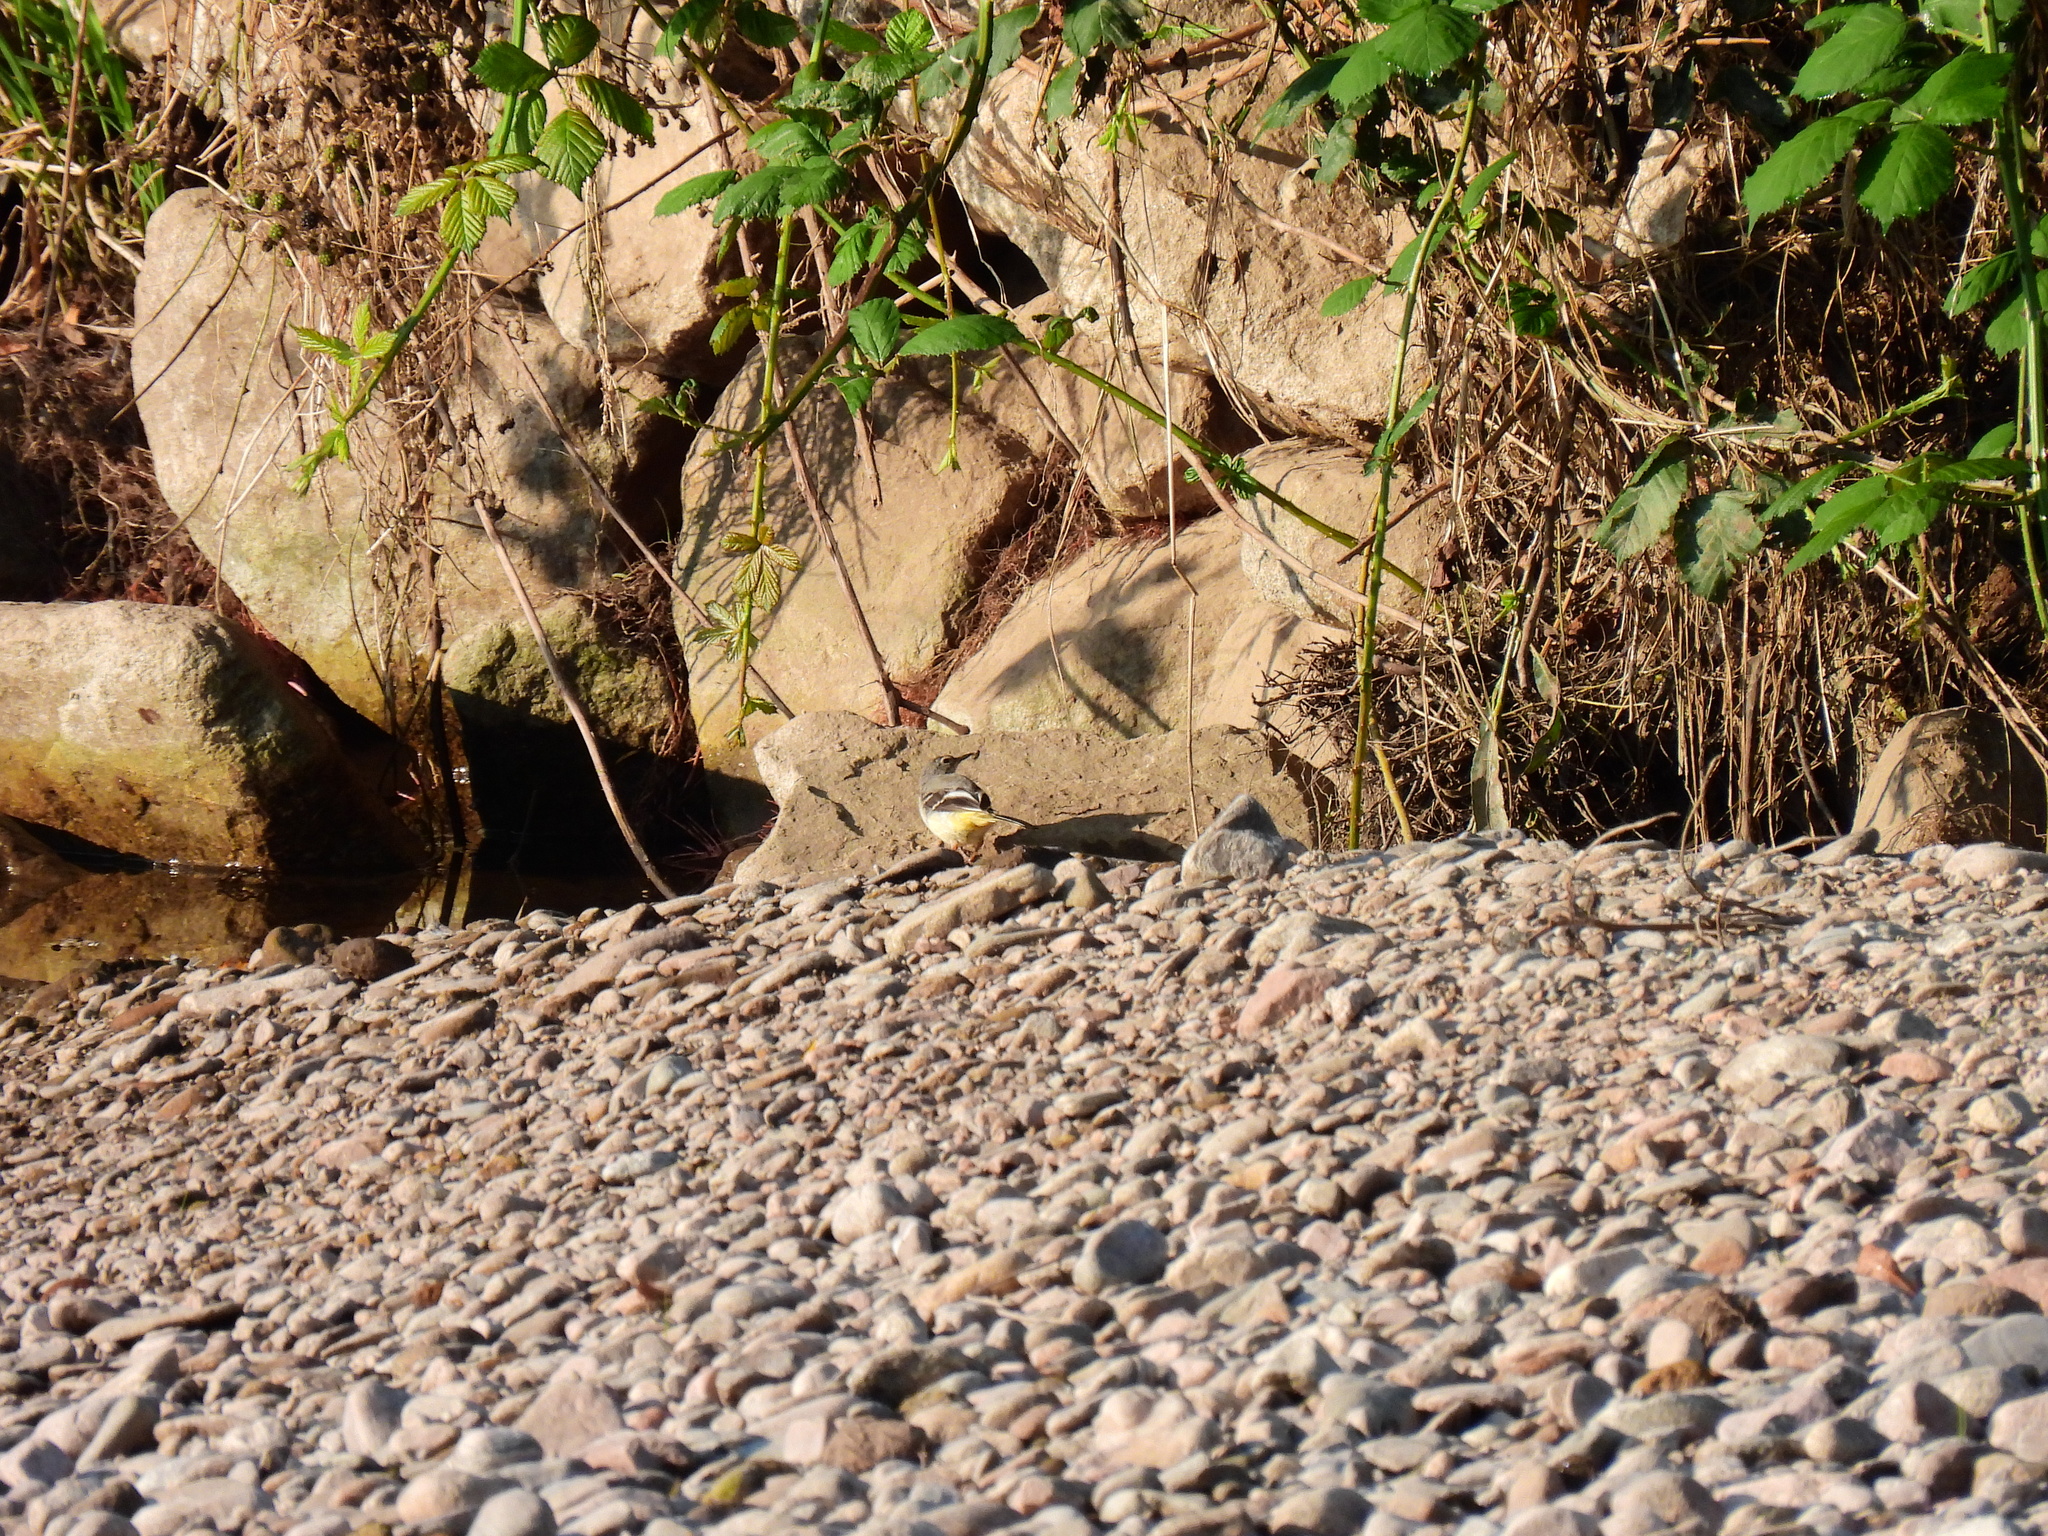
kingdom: Animalia
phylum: Chordata
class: Aves
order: Passeriformes
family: Motacillidae
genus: Motacilla
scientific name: Motacilla cinerea
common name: Grey wagtail
